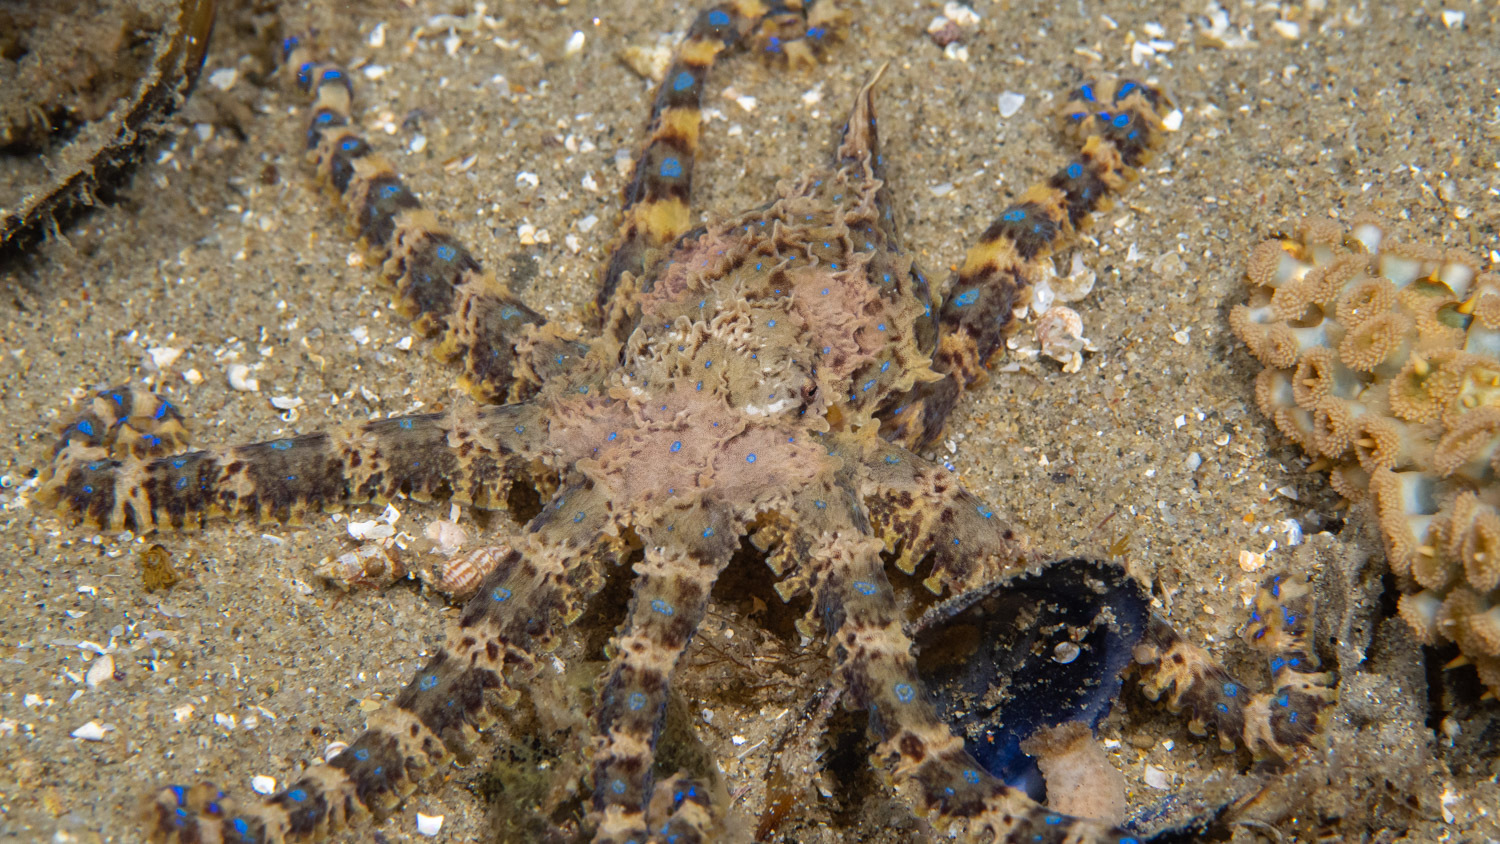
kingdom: Animalia
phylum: Mollusca
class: Cephalopoda
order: Octopoda
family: Octopodidae
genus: Hapalochlaena
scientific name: Hapalochlaena maculosa
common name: Blue-ringed octopus
